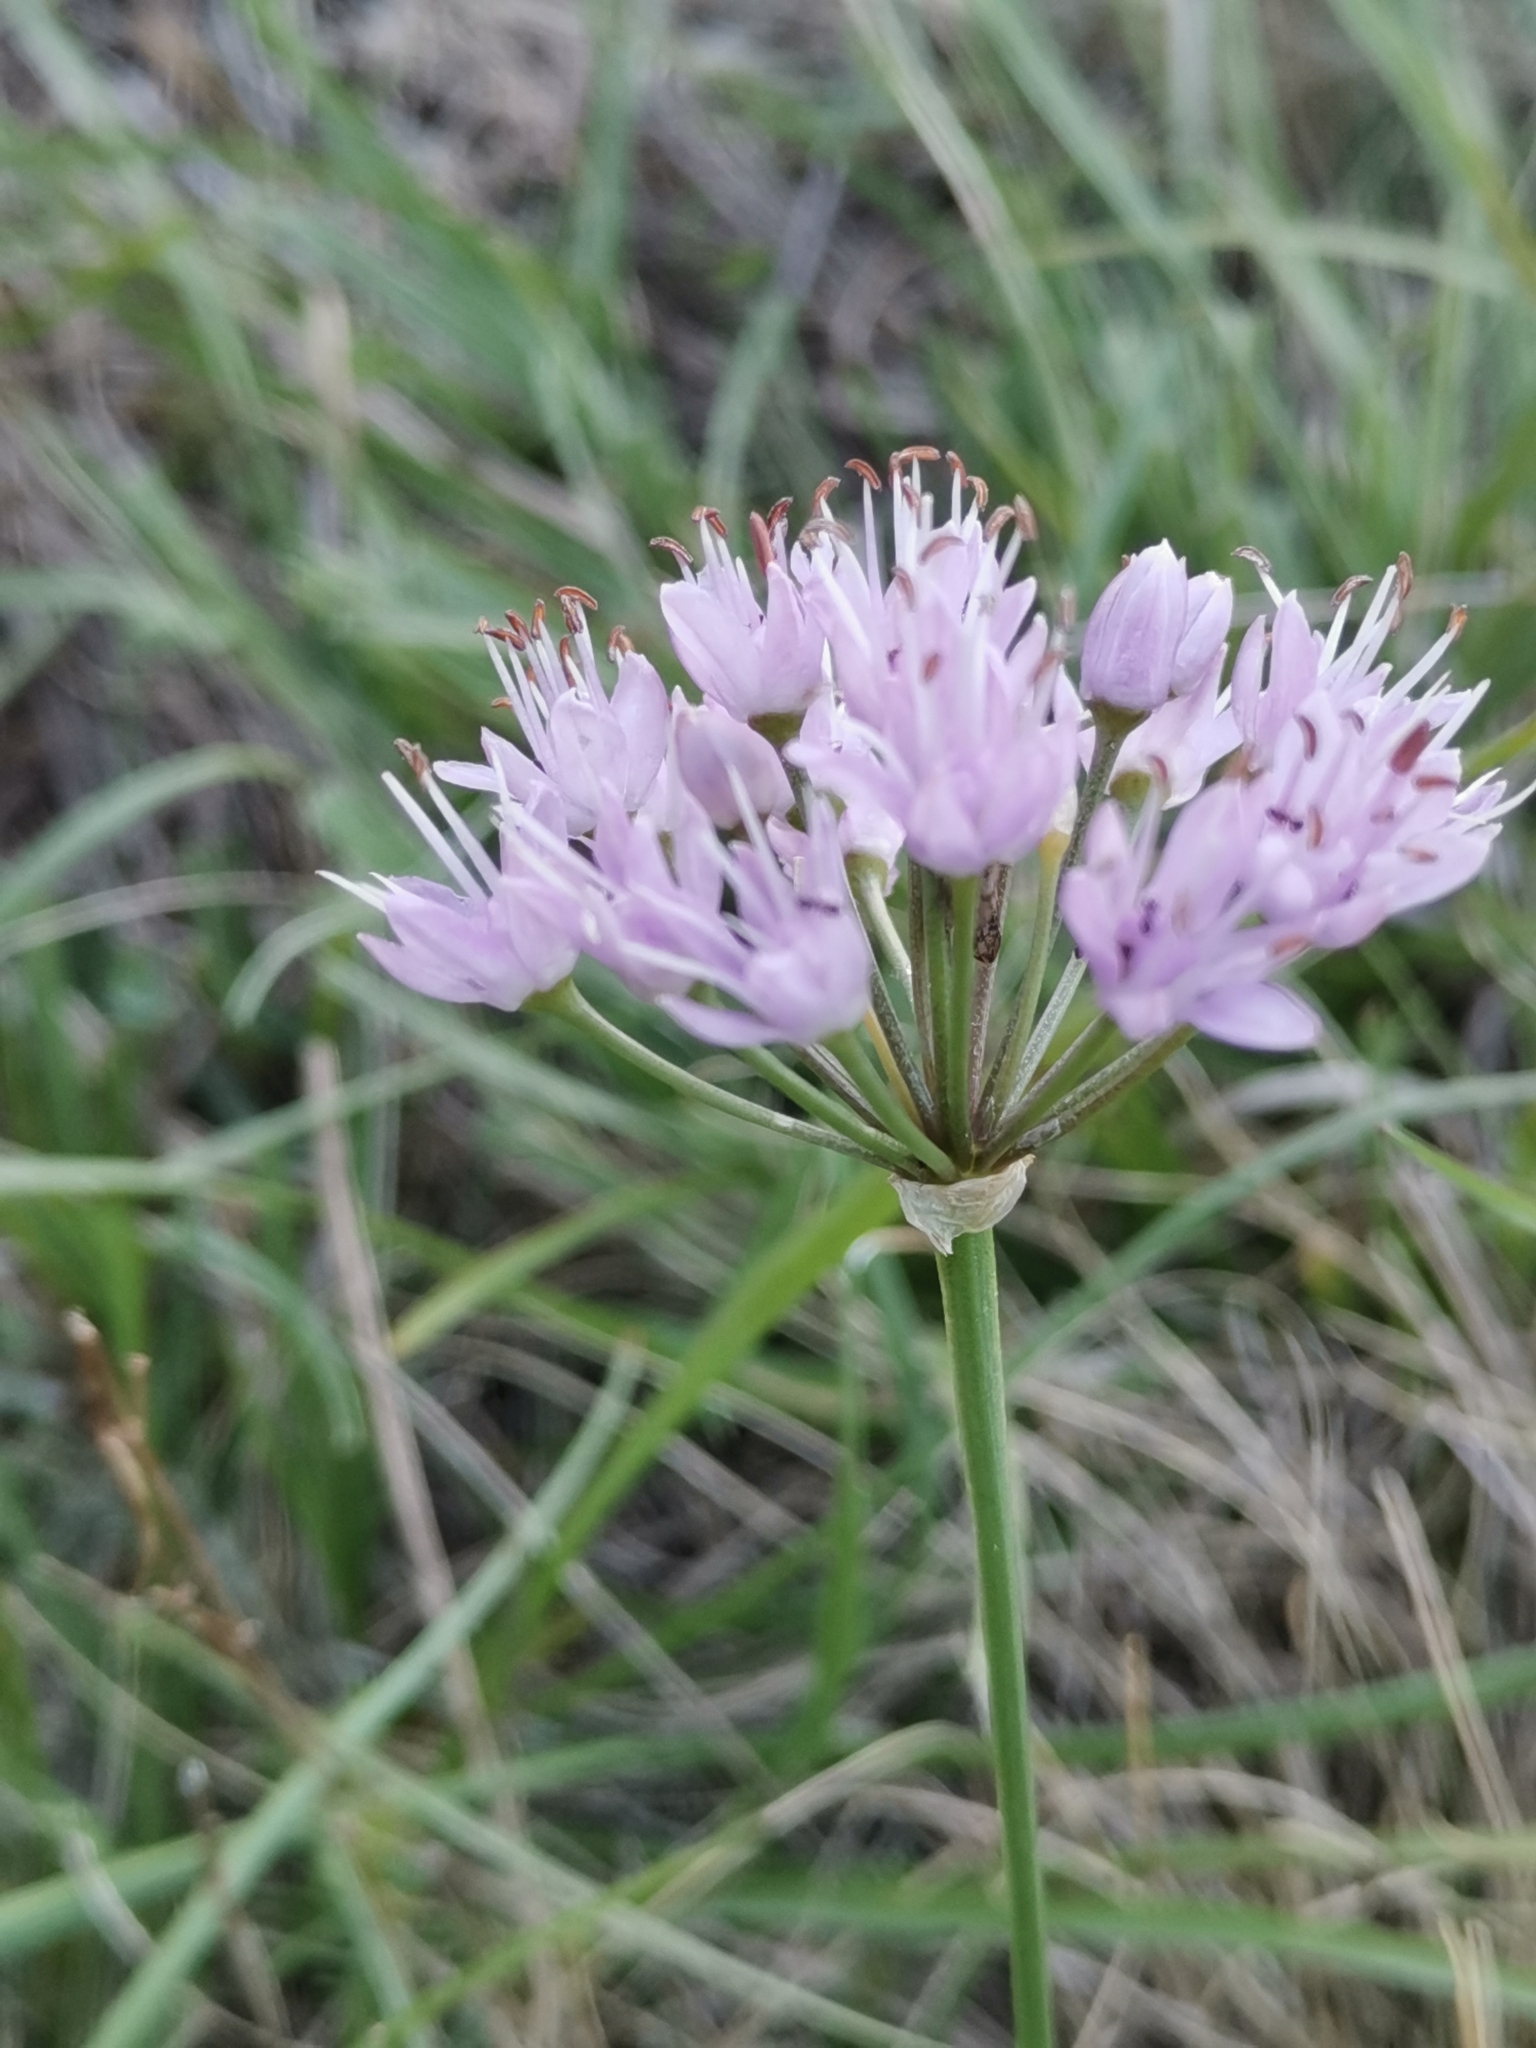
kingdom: Plantae
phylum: Tracheophyta
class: Liliopsida
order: Asparagales
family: Amaryllidaceae
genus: Allium
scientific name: Allium lusitanicum
